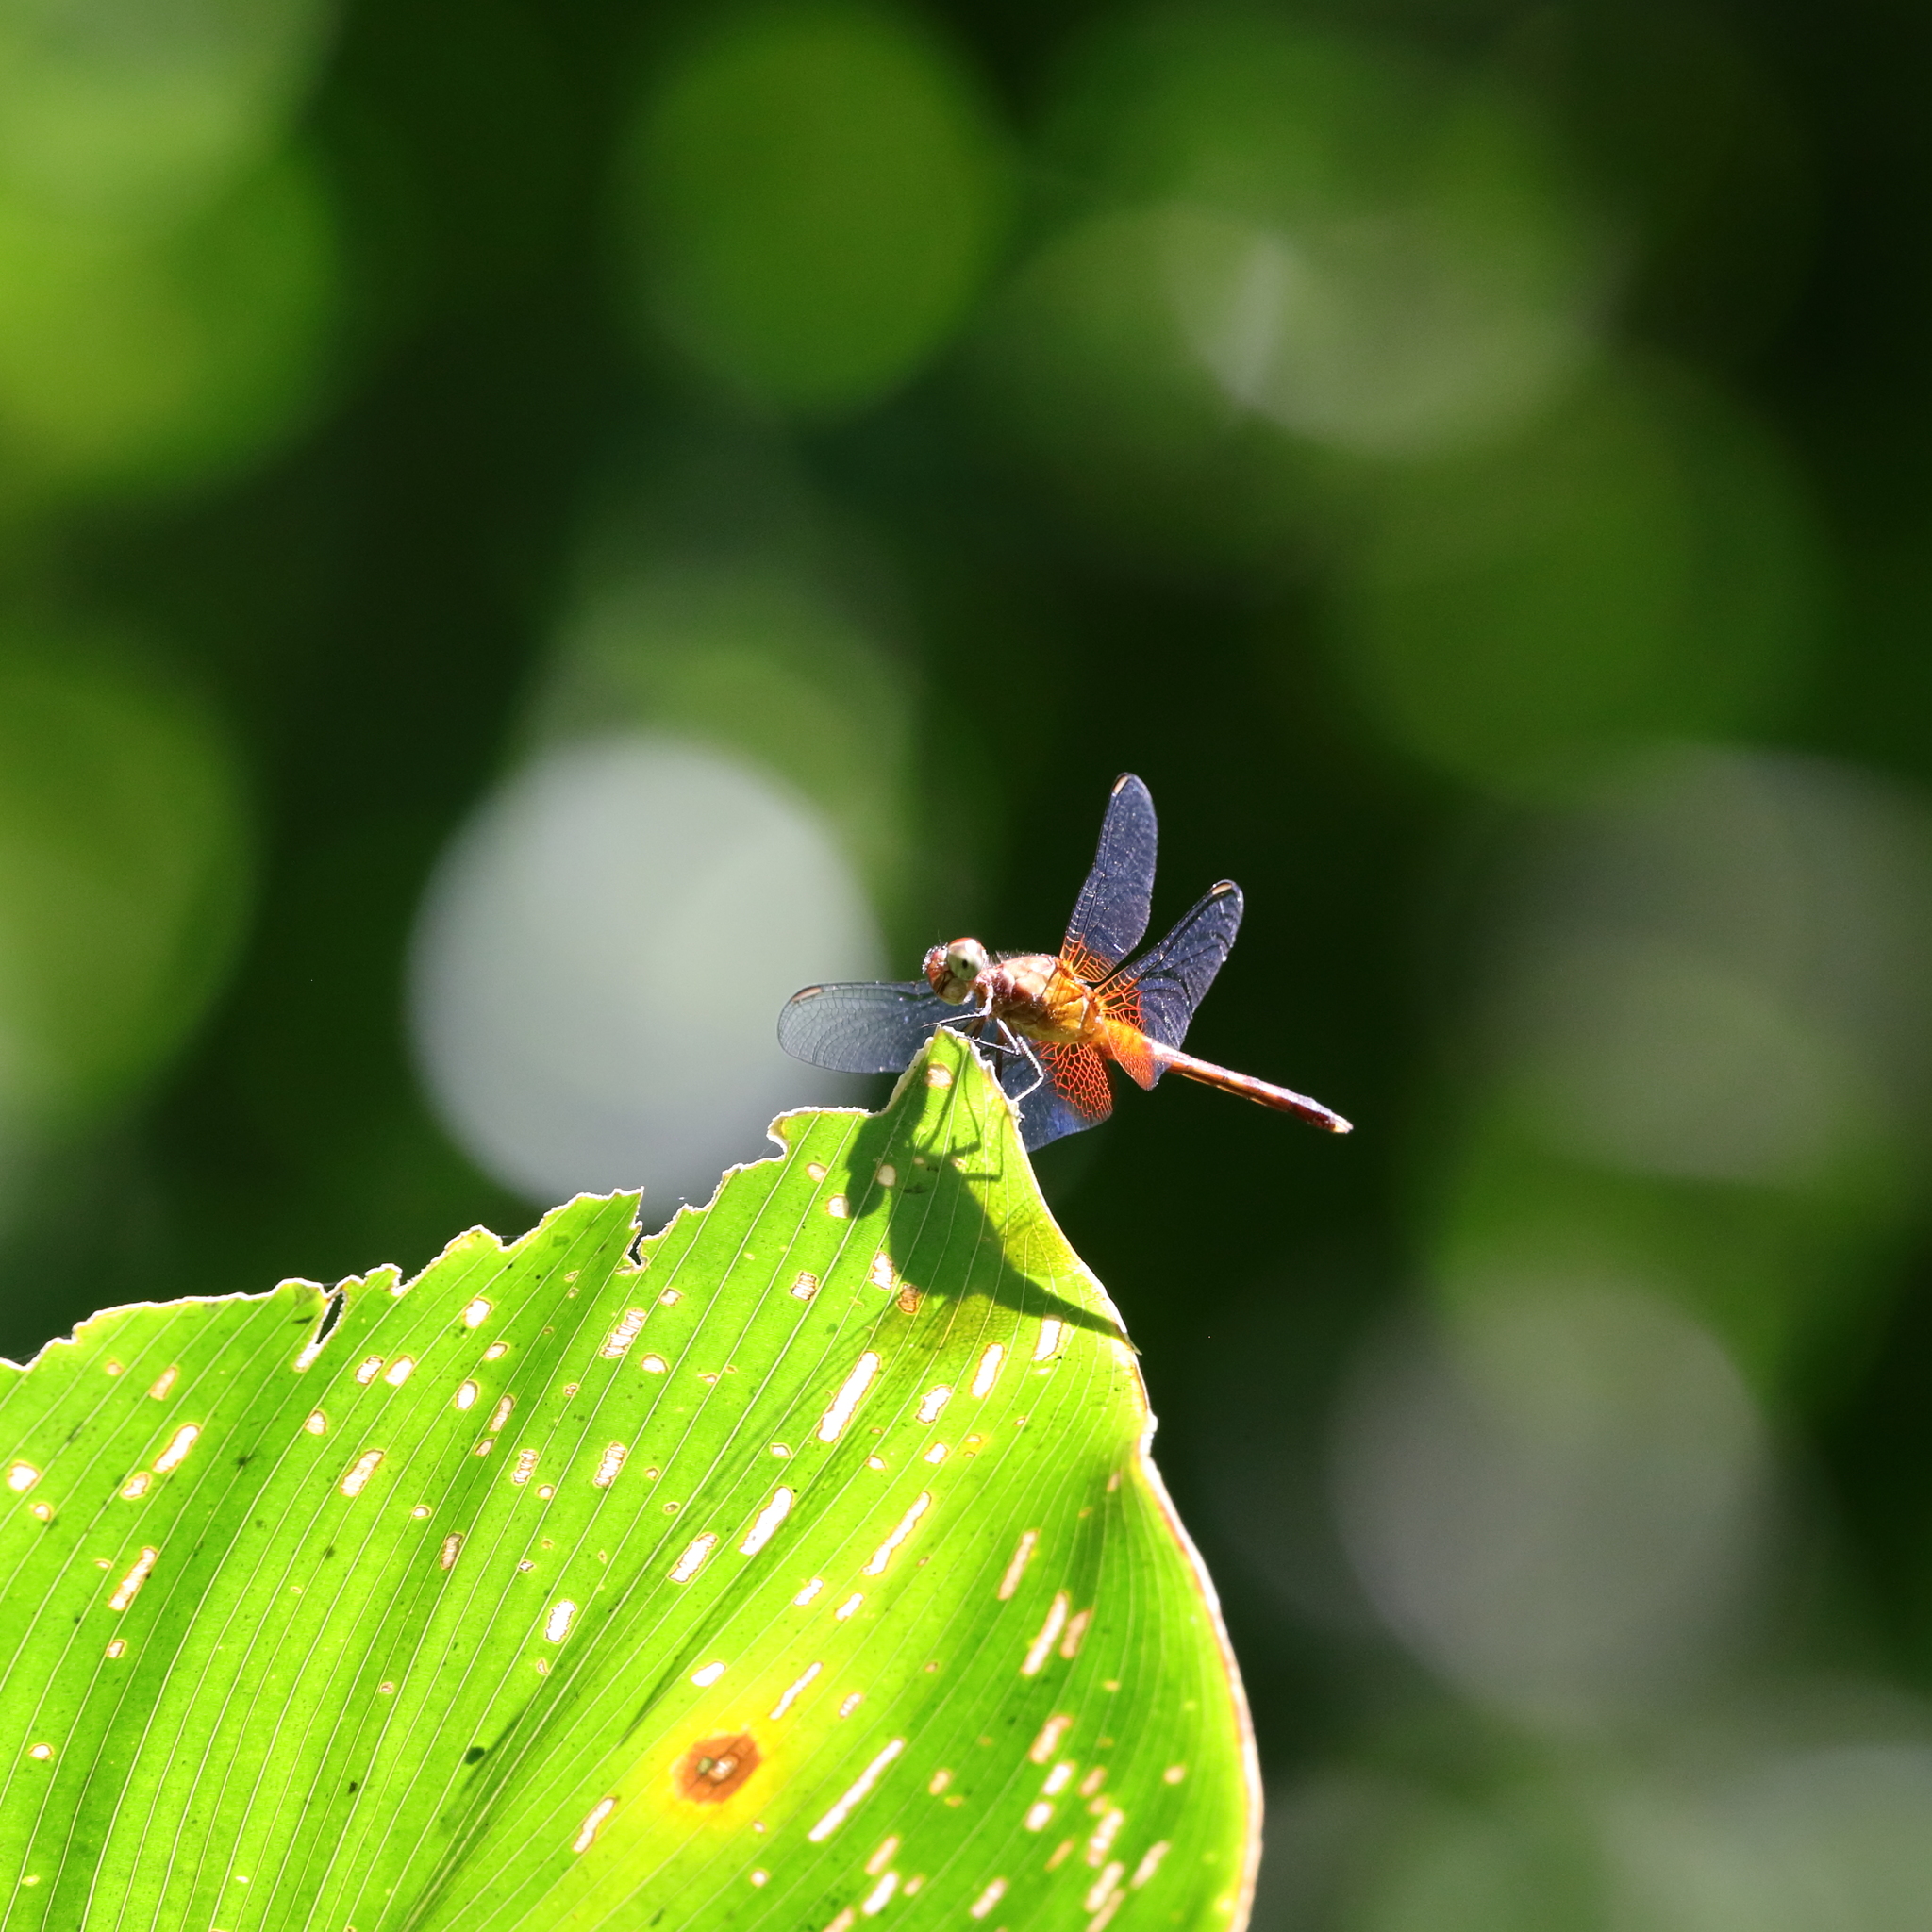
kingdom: Animalia
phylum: Arthropoda
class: Insecta
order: Odonata
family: Libellulidae
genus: Erythrodiplax
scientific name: Erythrodiplax fervida
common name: Red-mantled dragonlet
